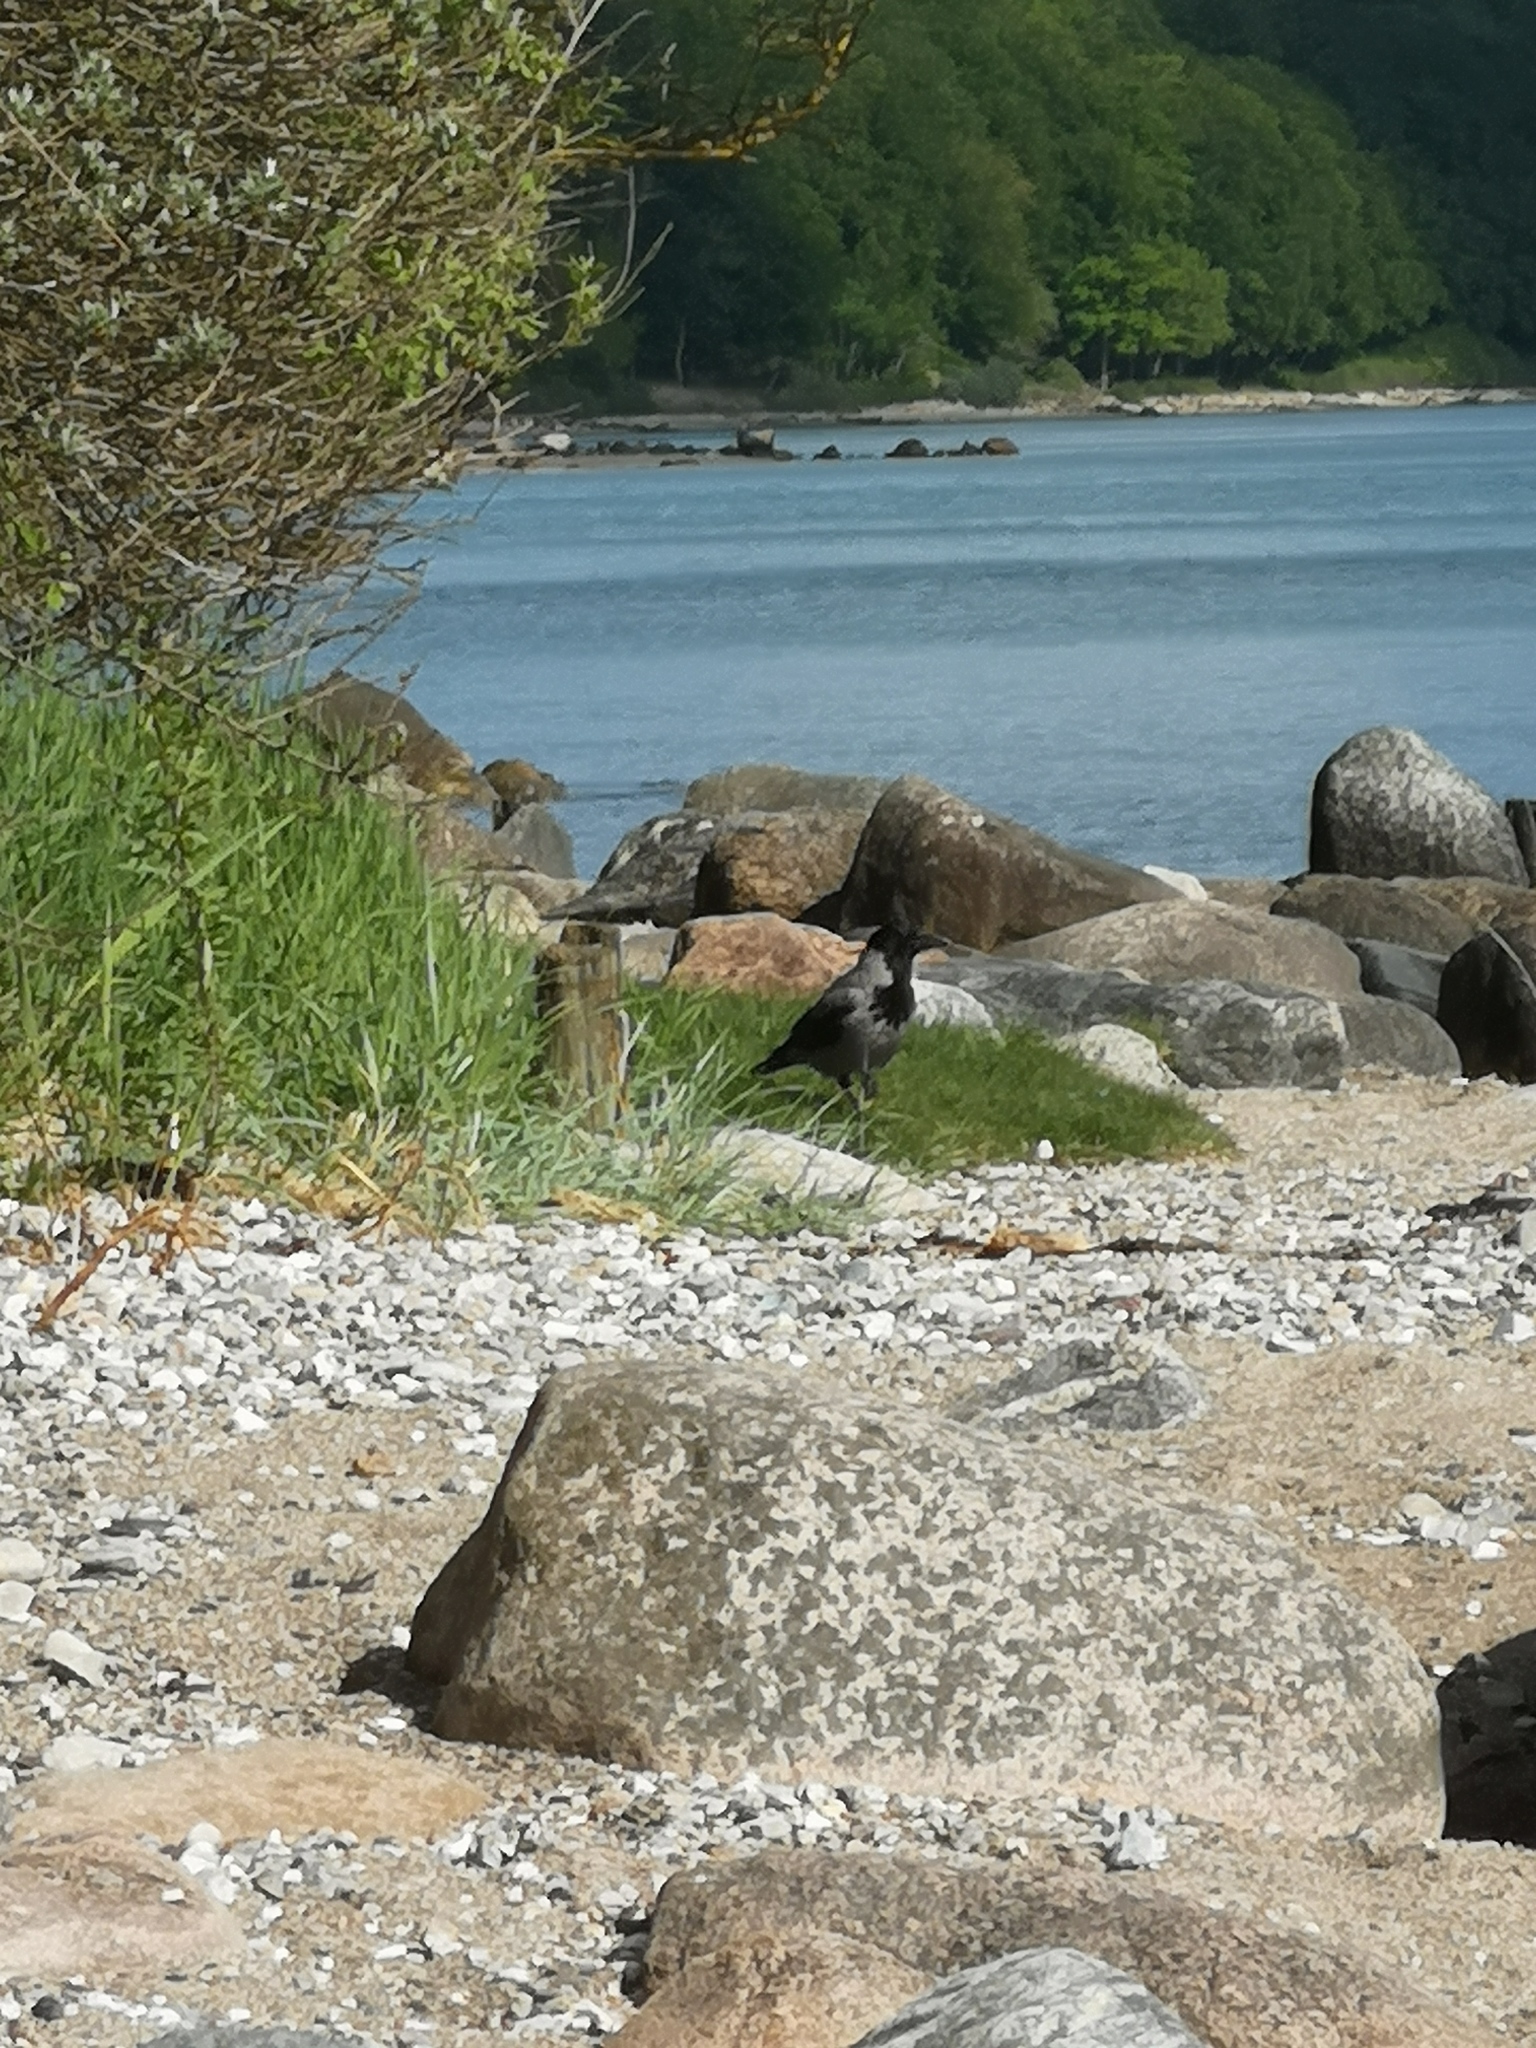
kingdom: Animalia
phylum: Chordata
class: Aves
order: Passeriformes
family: Corvidae
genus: Corvus
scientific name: Corvus cornix
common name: Hooded crow
